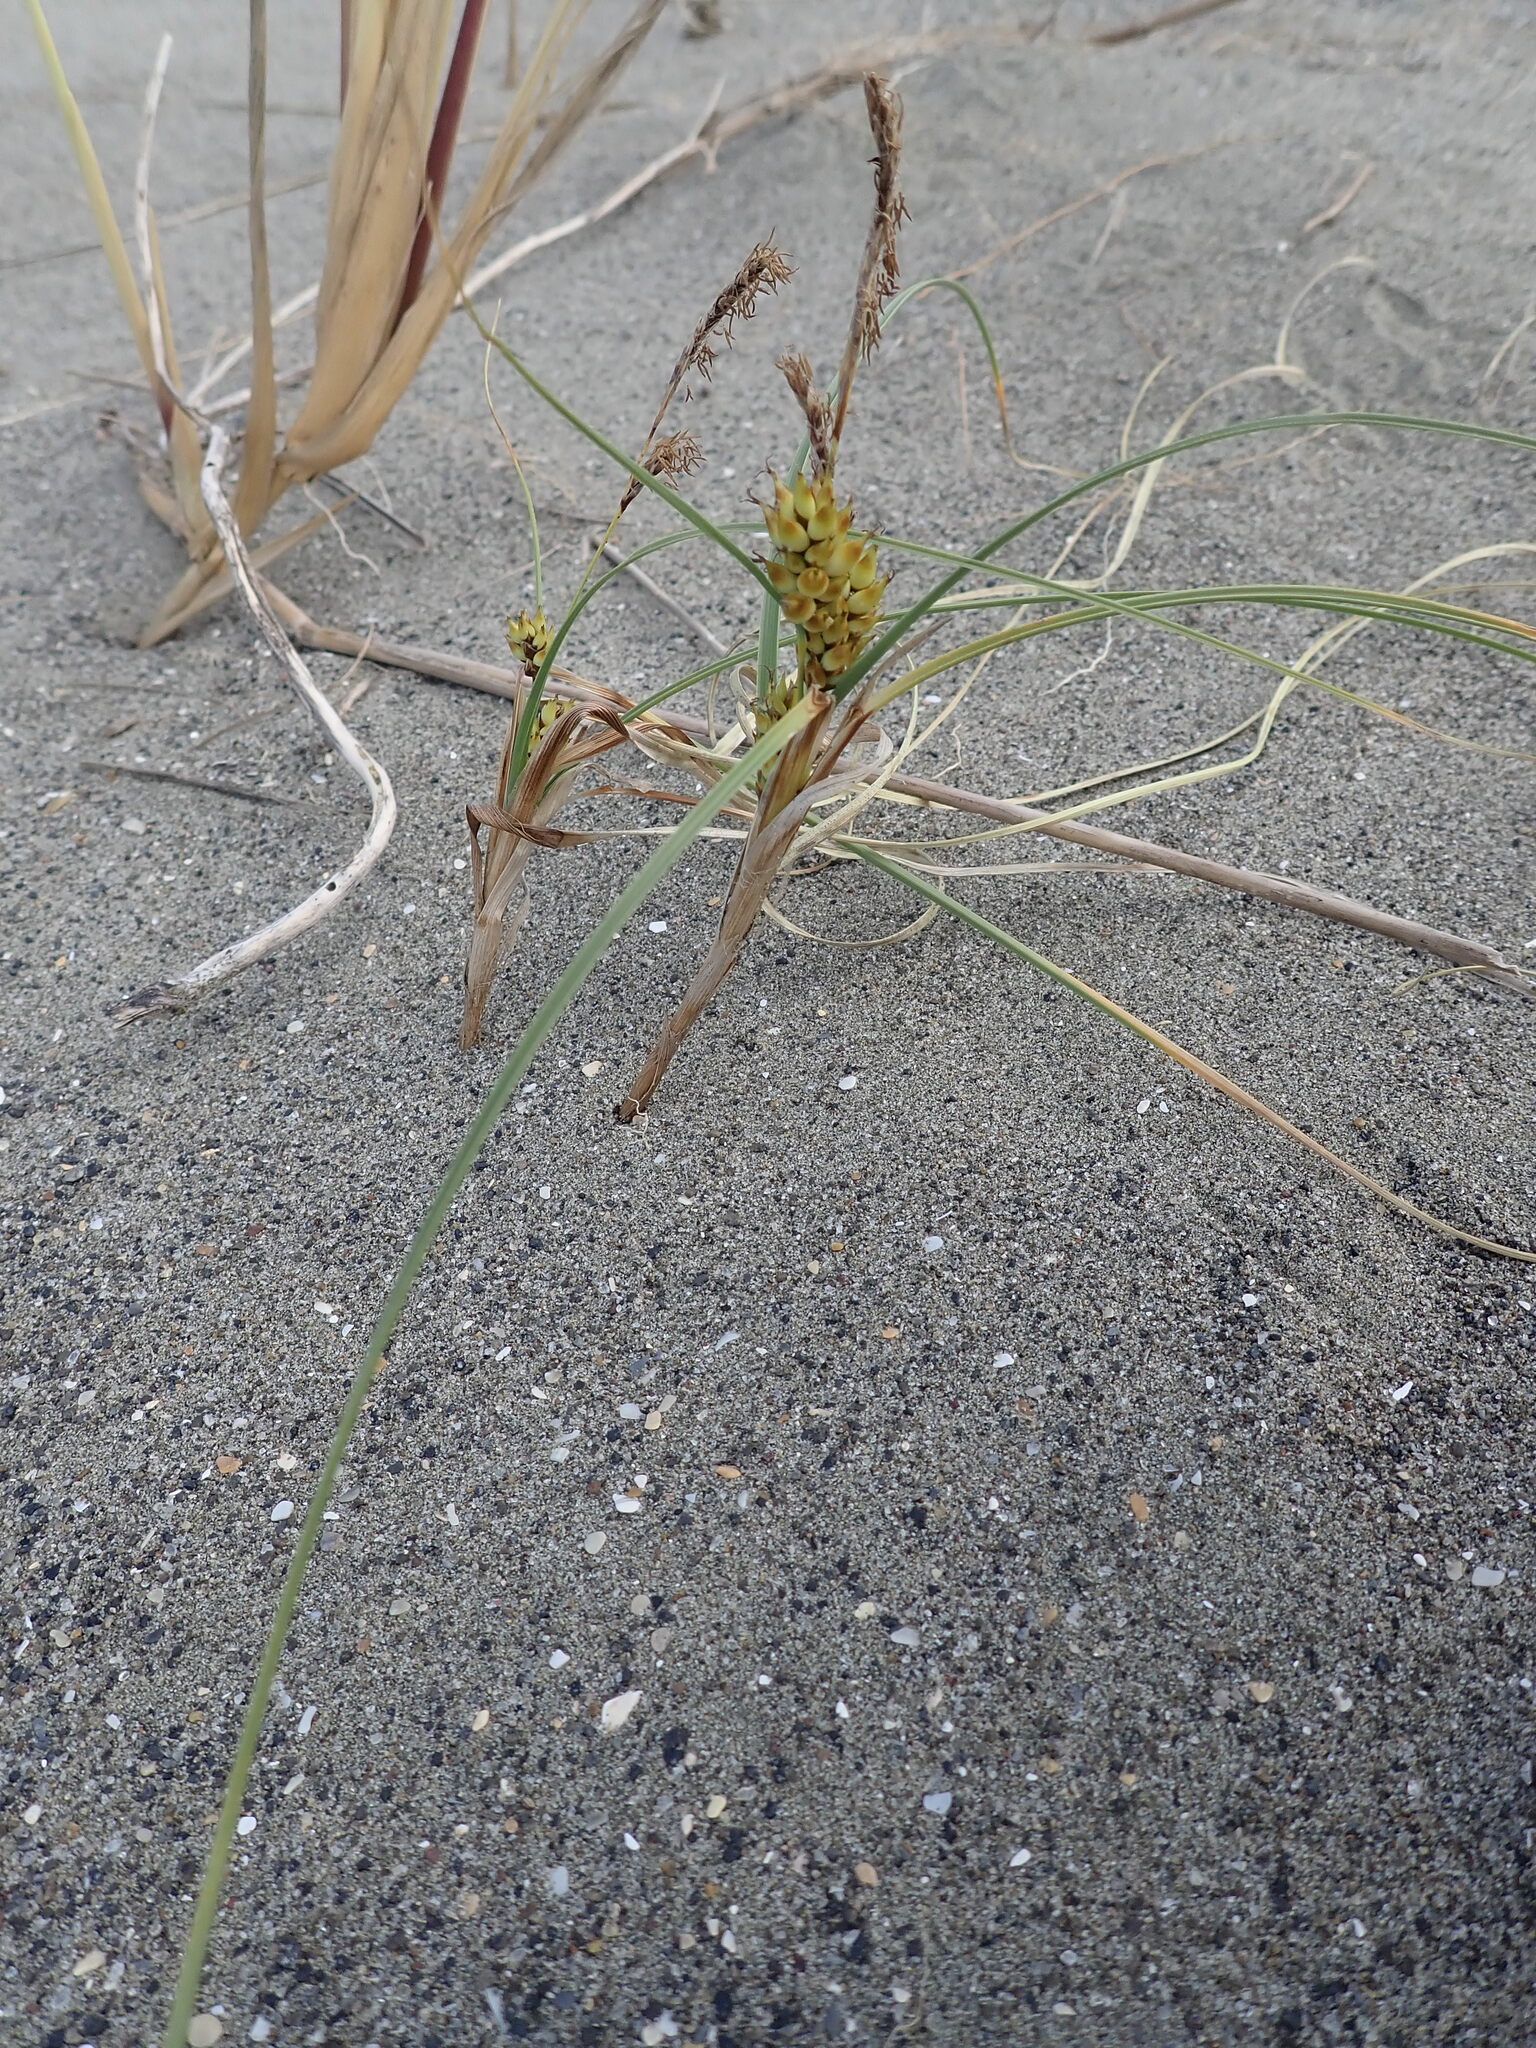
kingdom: Plantae
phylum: Tracheophyta
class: Liliopsida
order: Poales
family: Cyperaceae
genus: Carex
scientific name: Carex pumila
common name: Dwarf sedge
